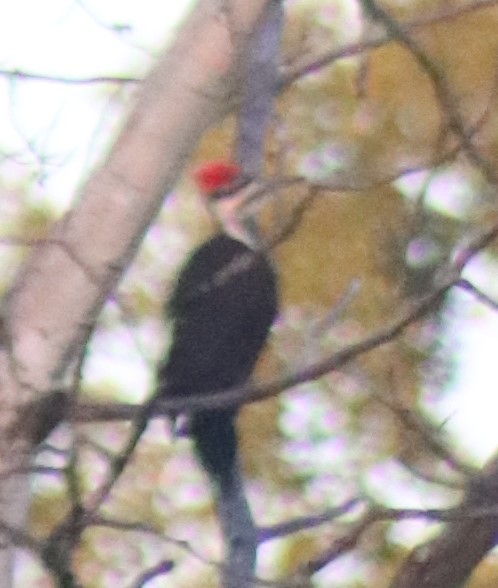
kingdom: Animalia
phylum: Chordata
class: Aves
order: Piciformes
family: Picidae
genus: Dryocopus
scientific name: Dryocopus pileatus
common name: Pileated woodpecker
